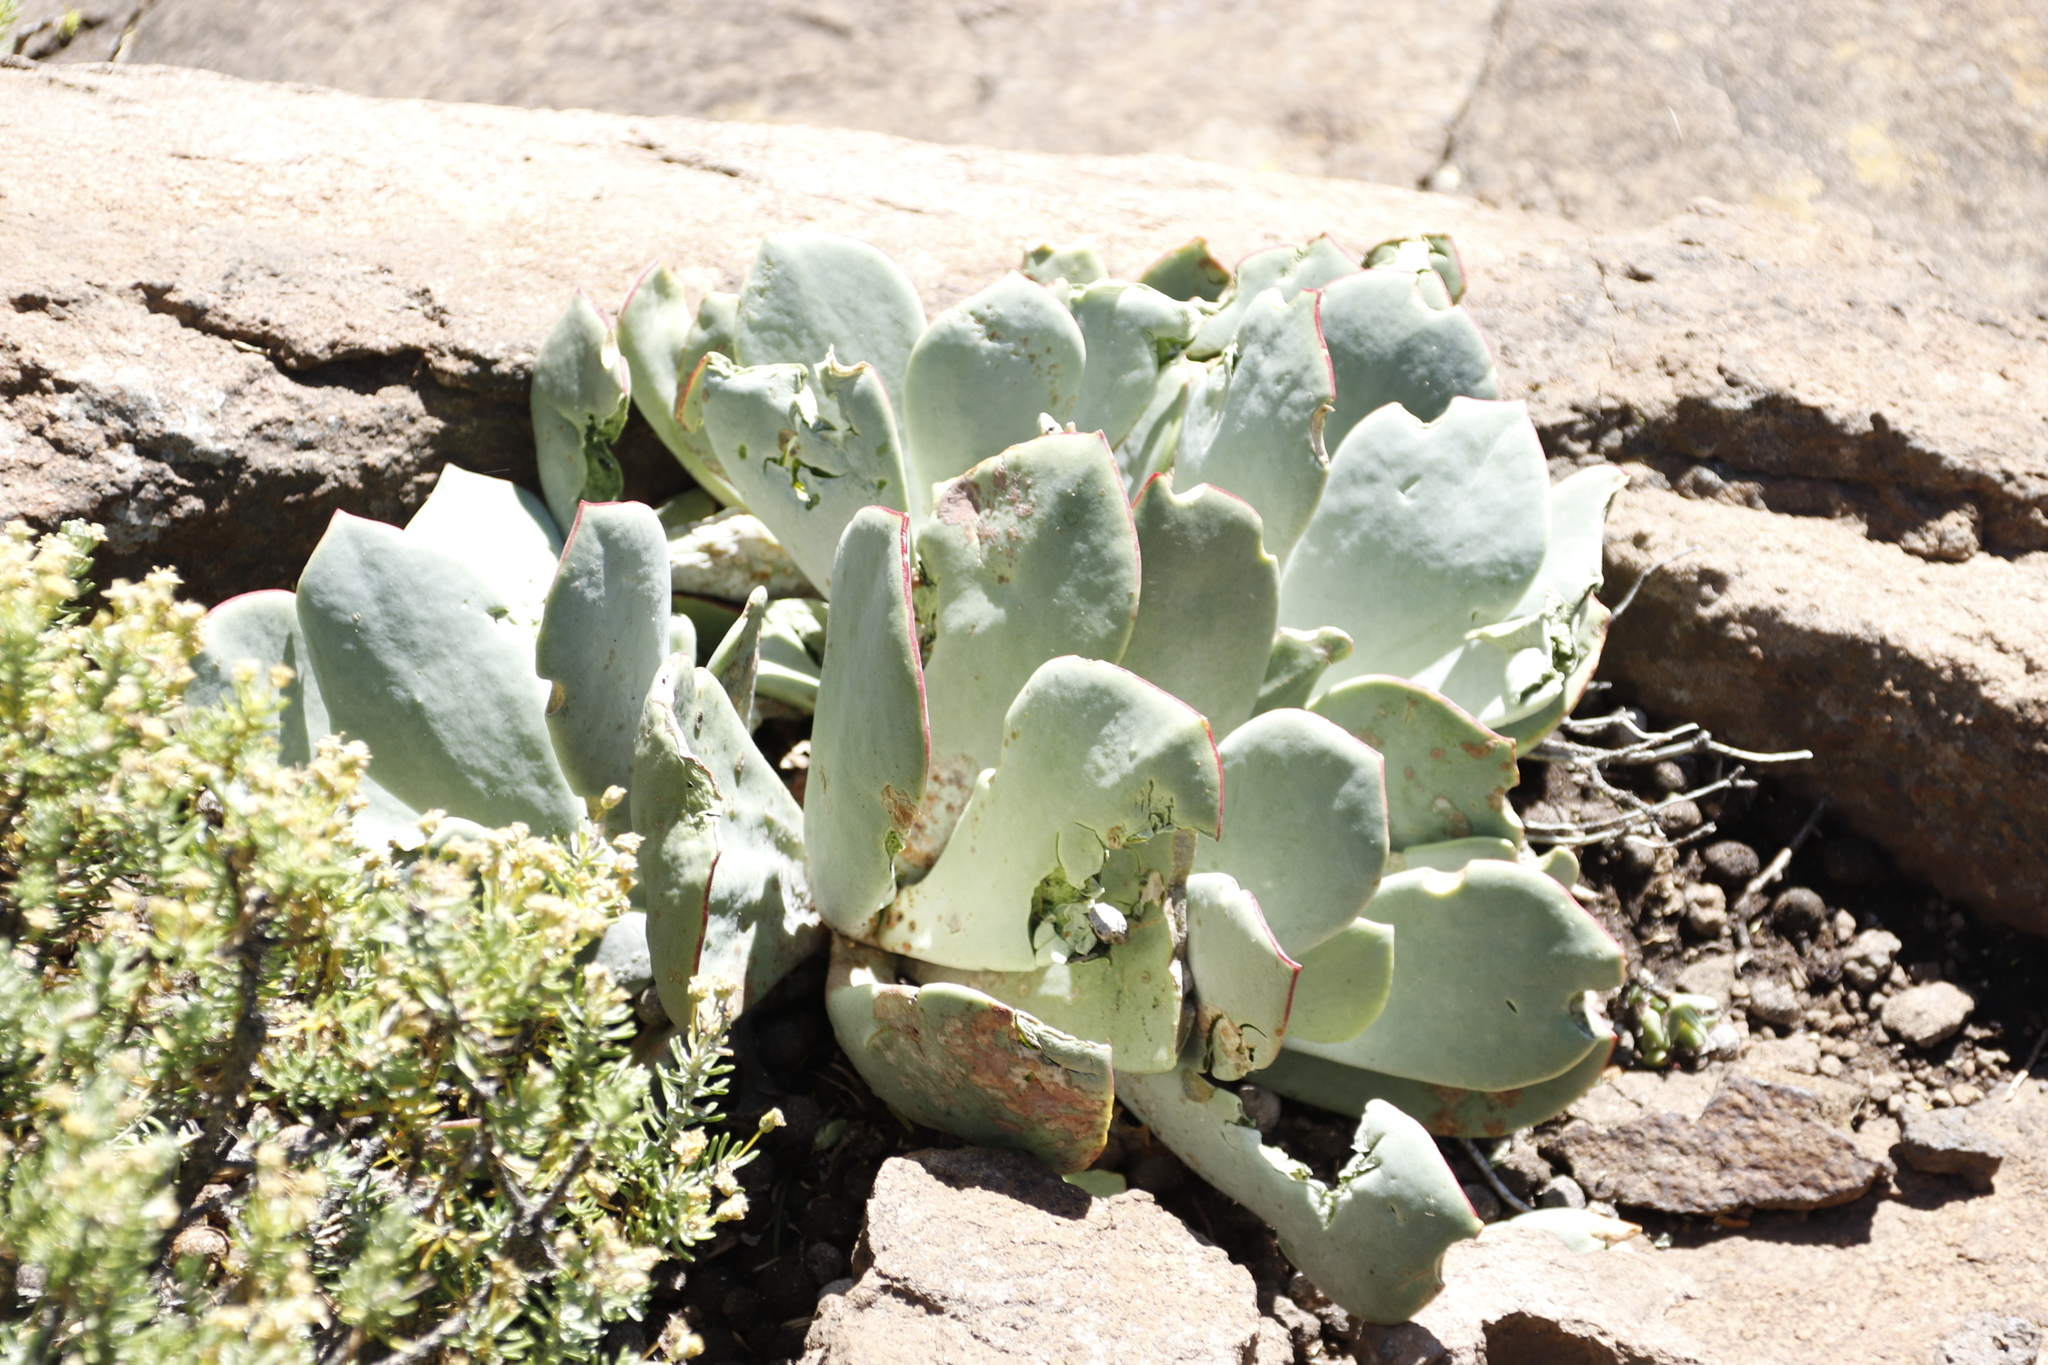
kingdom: Plantae
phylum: Tracheophyta
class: Magnoliopsida
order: Saxifragales
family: Crassulaceae
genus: Cotyledon
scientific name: Cotyledon orbiculata
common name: Pig's ear
